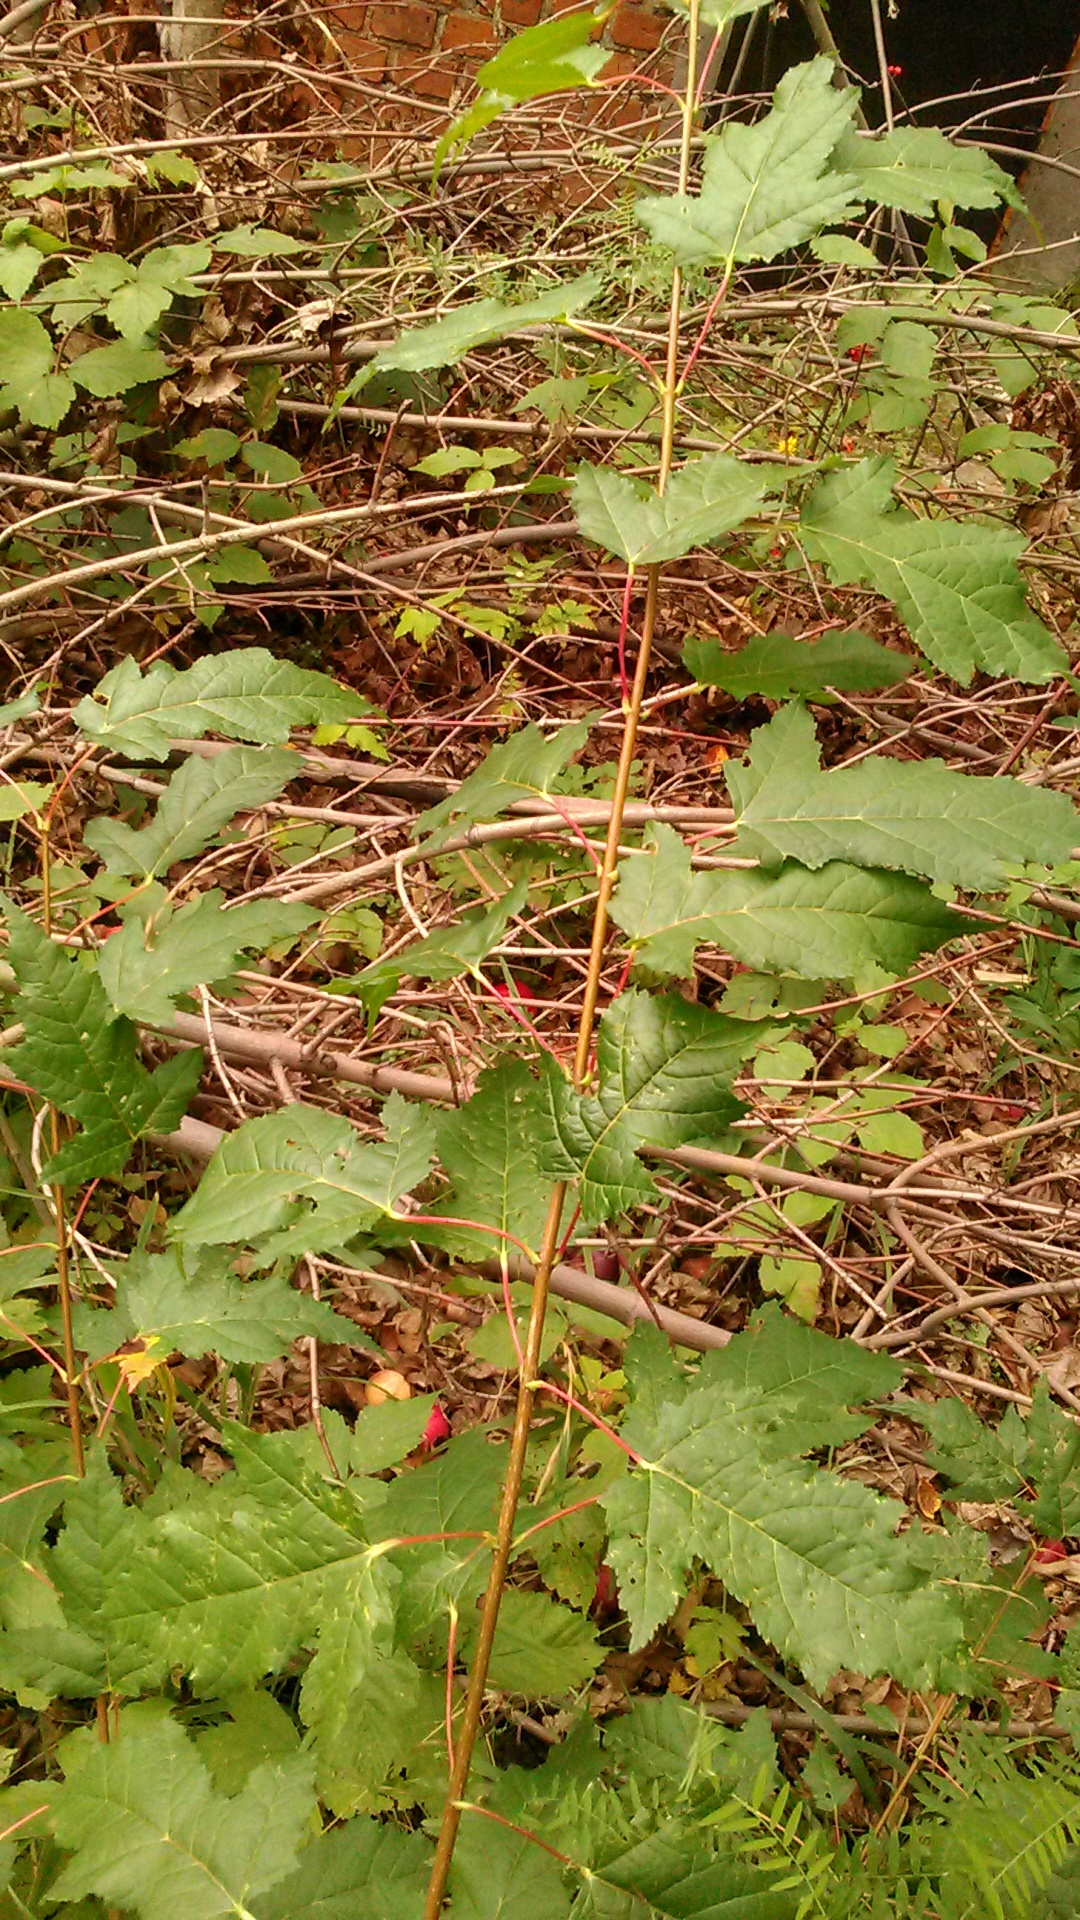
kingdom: Plantae
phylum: Tracheophyta
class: Magnoliopsida
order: Sapindales
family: Sapindaceae
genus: Acer
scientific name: Acer tataricum
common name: Tartar maple
